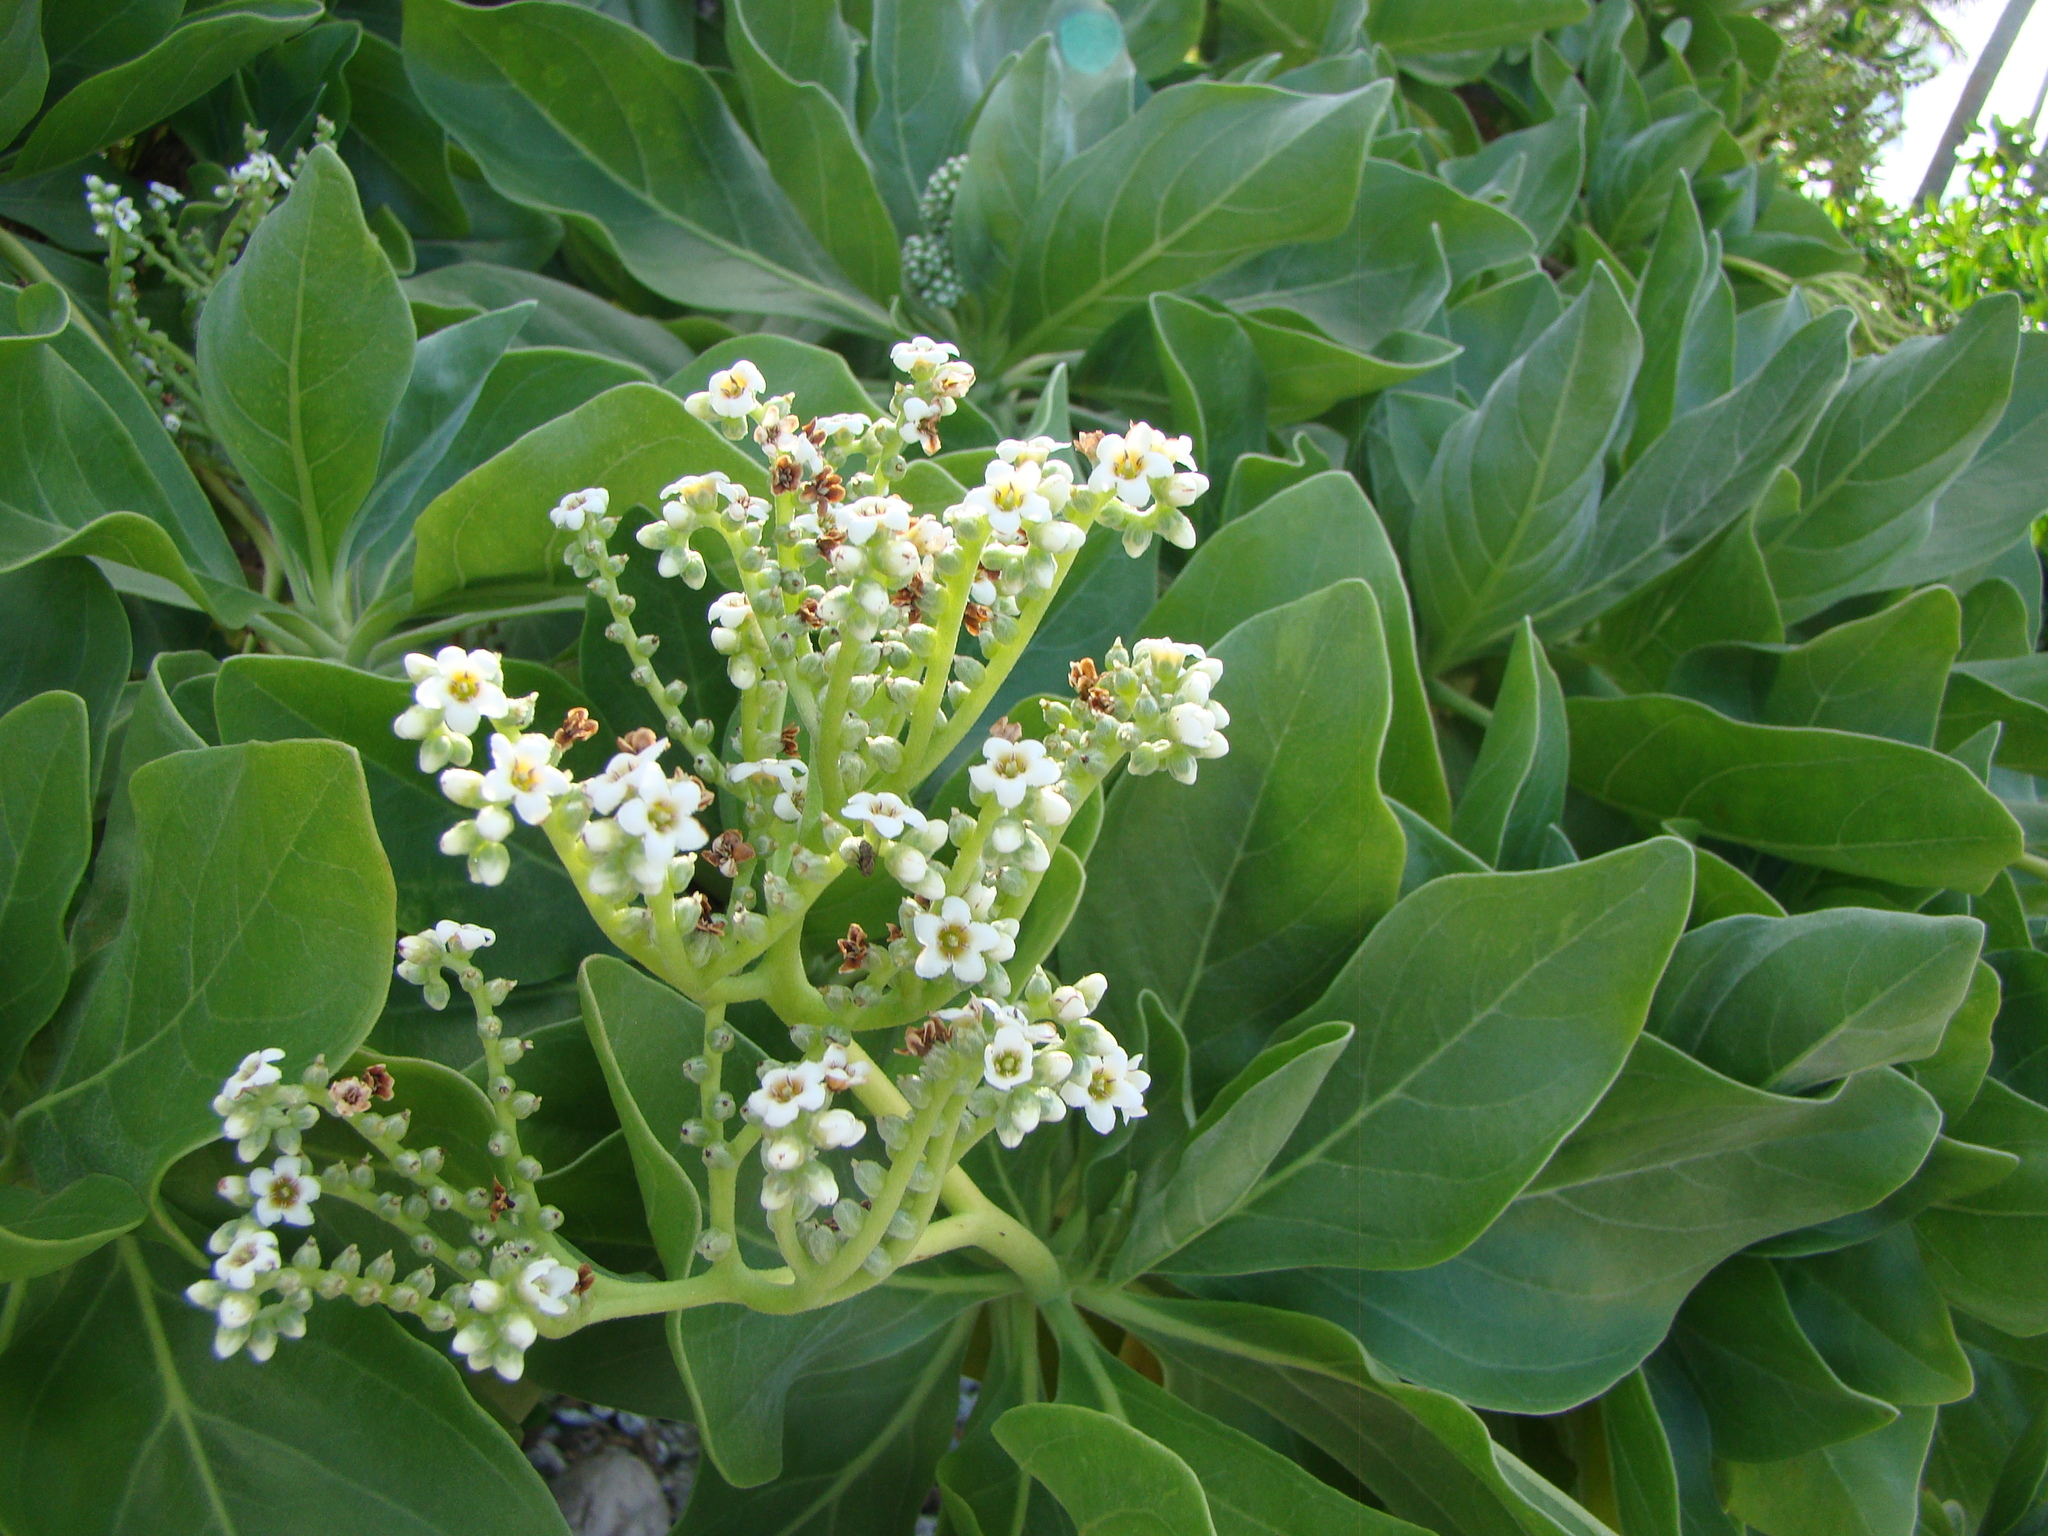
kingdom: Plantae
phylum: Tracheophyta
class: Magnoliopsida
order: Boraginales
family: Heliotropiaceae
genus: Heliotropium
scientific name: Heliotropium velutinum
